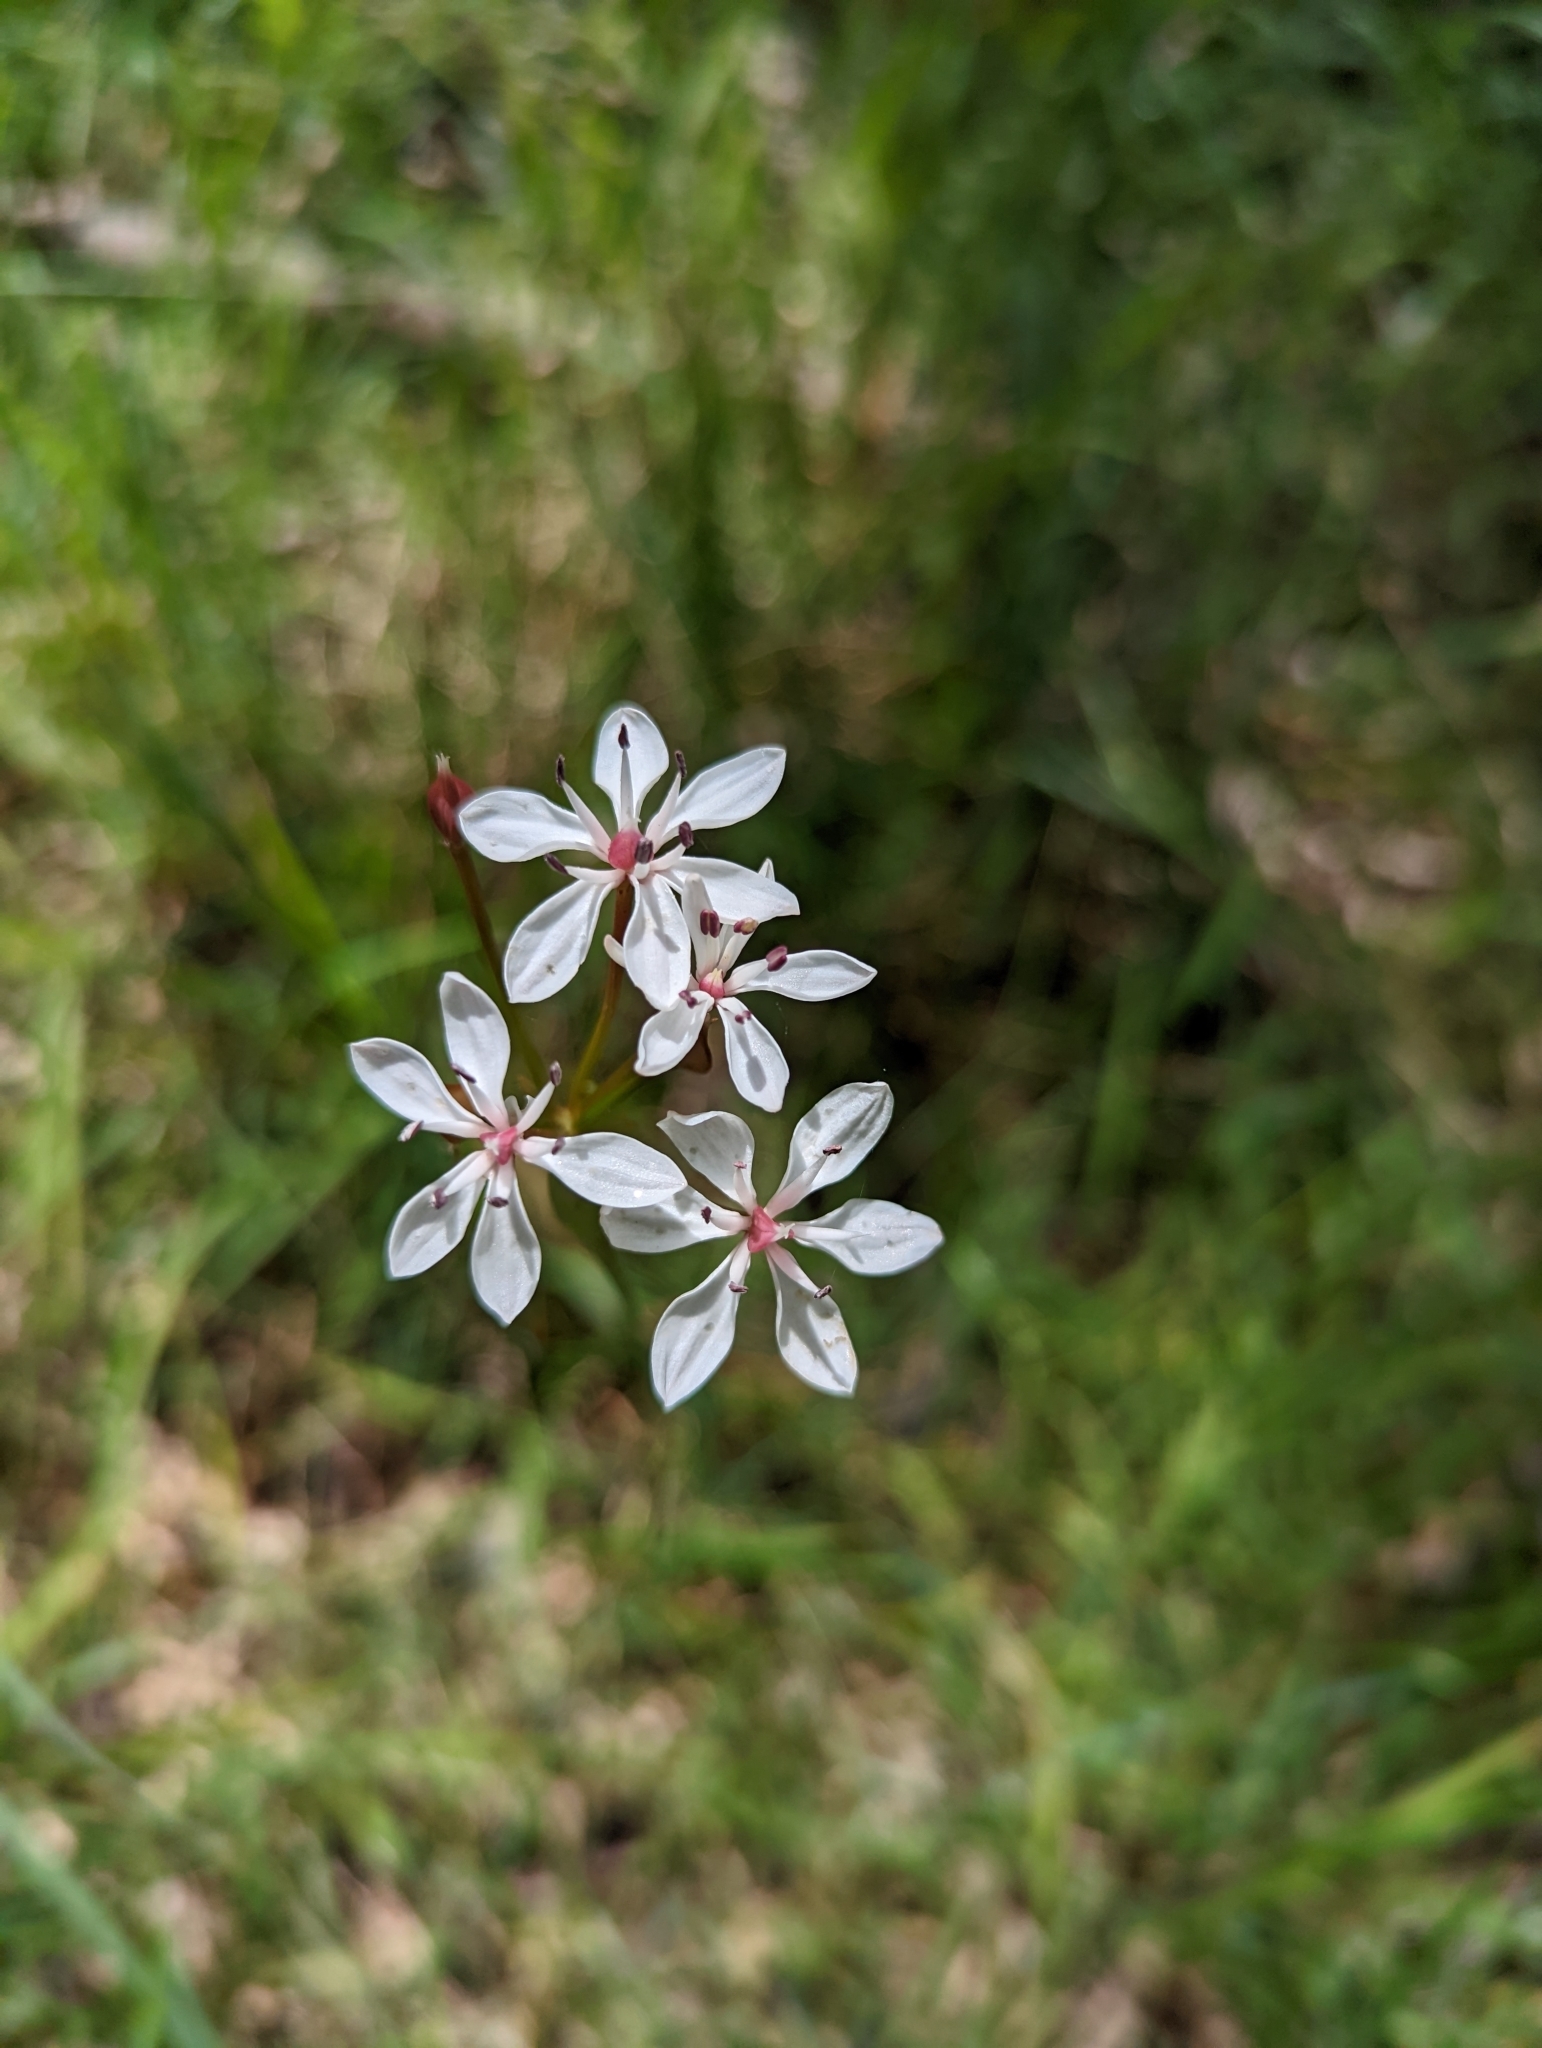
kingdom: Plantae
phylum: Tracheophyta
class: Liliopsida
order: Liliales
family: Colchicaceae
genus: Burchardia
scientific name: Burchardia umbellata
